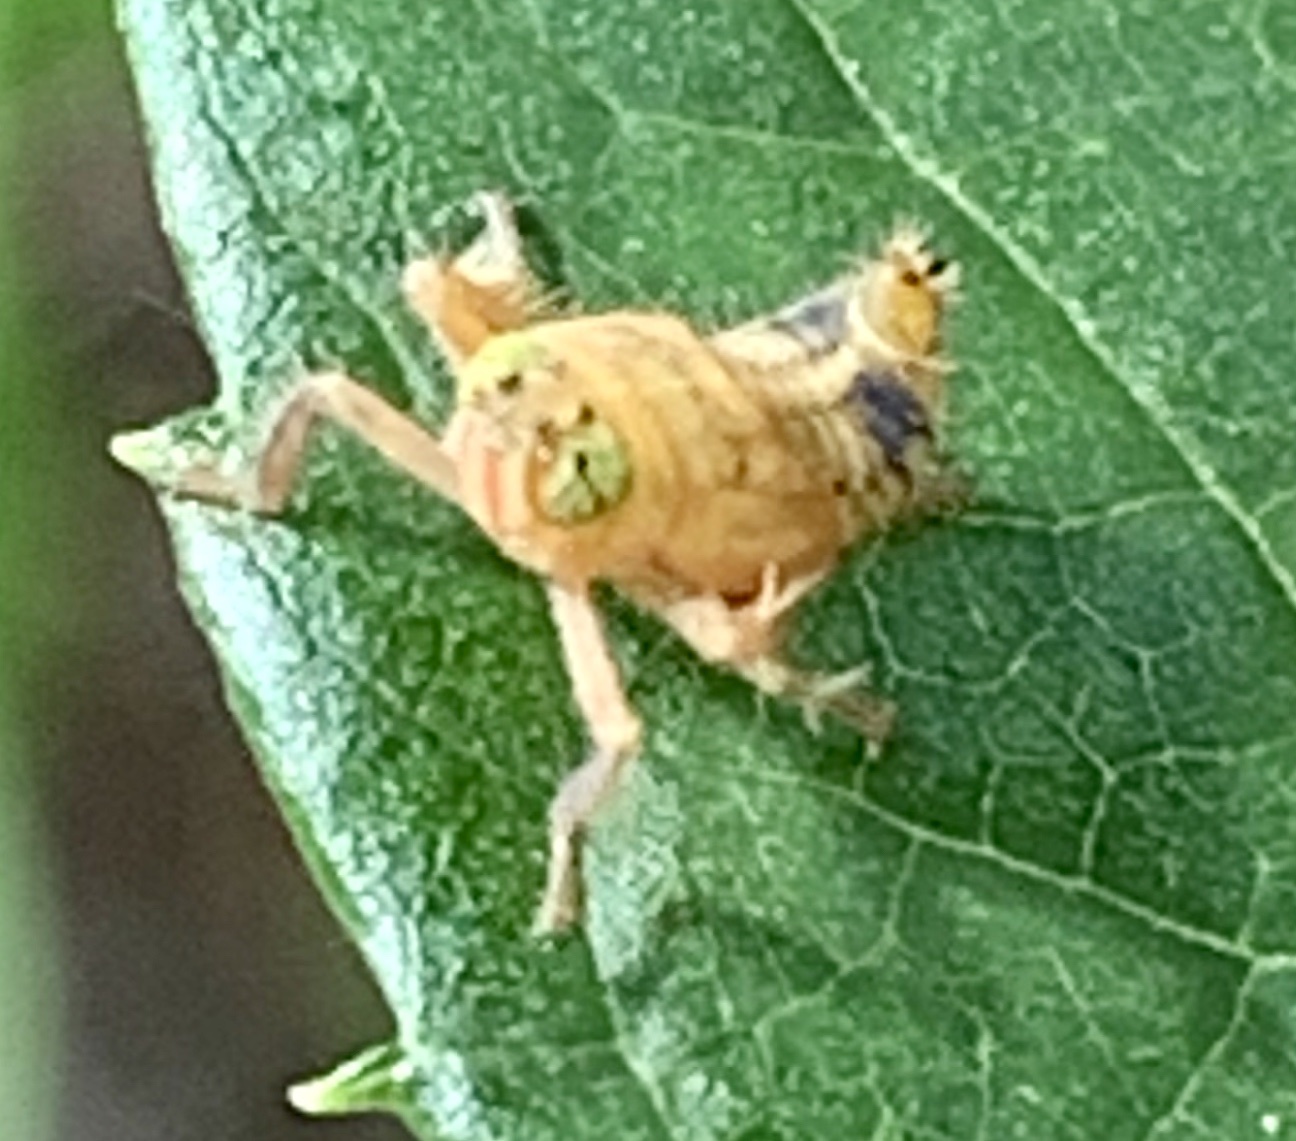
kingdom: Animalia
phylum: Arthropoda
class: Insecta
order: Hemiptera
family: Cicadellidae
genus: Jikradia
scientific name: Jikradia olitoria
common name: Coppery leafhopper
